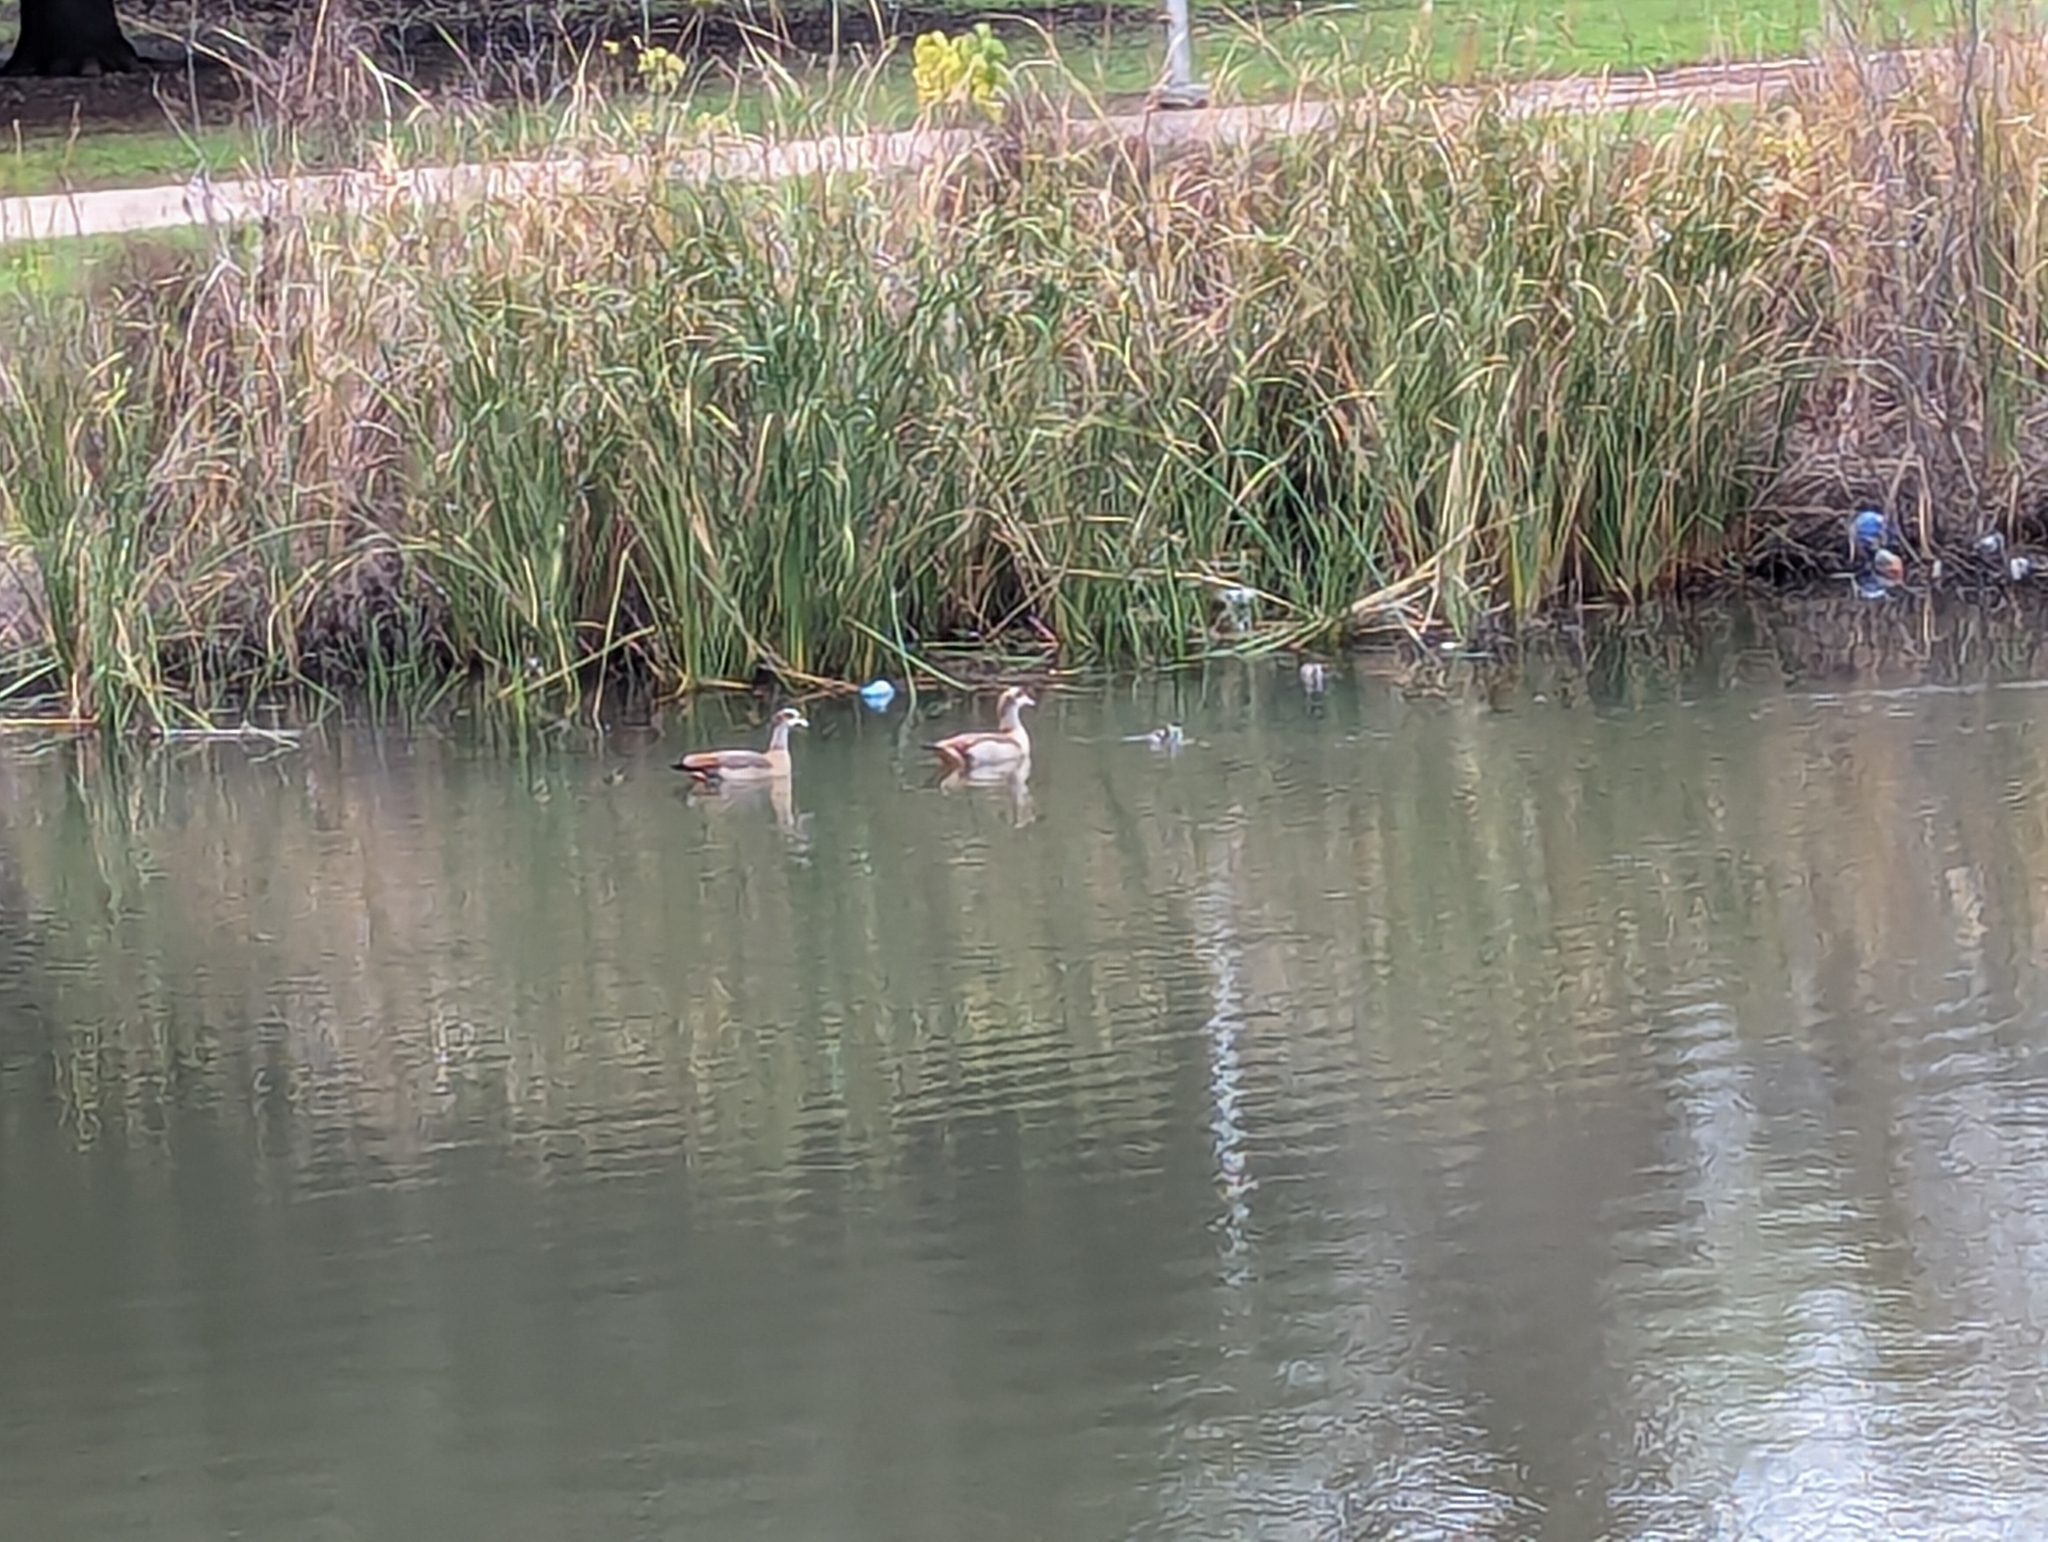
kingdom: Animalia
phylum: Chordata
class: Aves
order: Anseriformes
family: Anatidae
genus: Alopochen
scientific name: Alopochen aegyptiaca
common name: Egyptian goose
